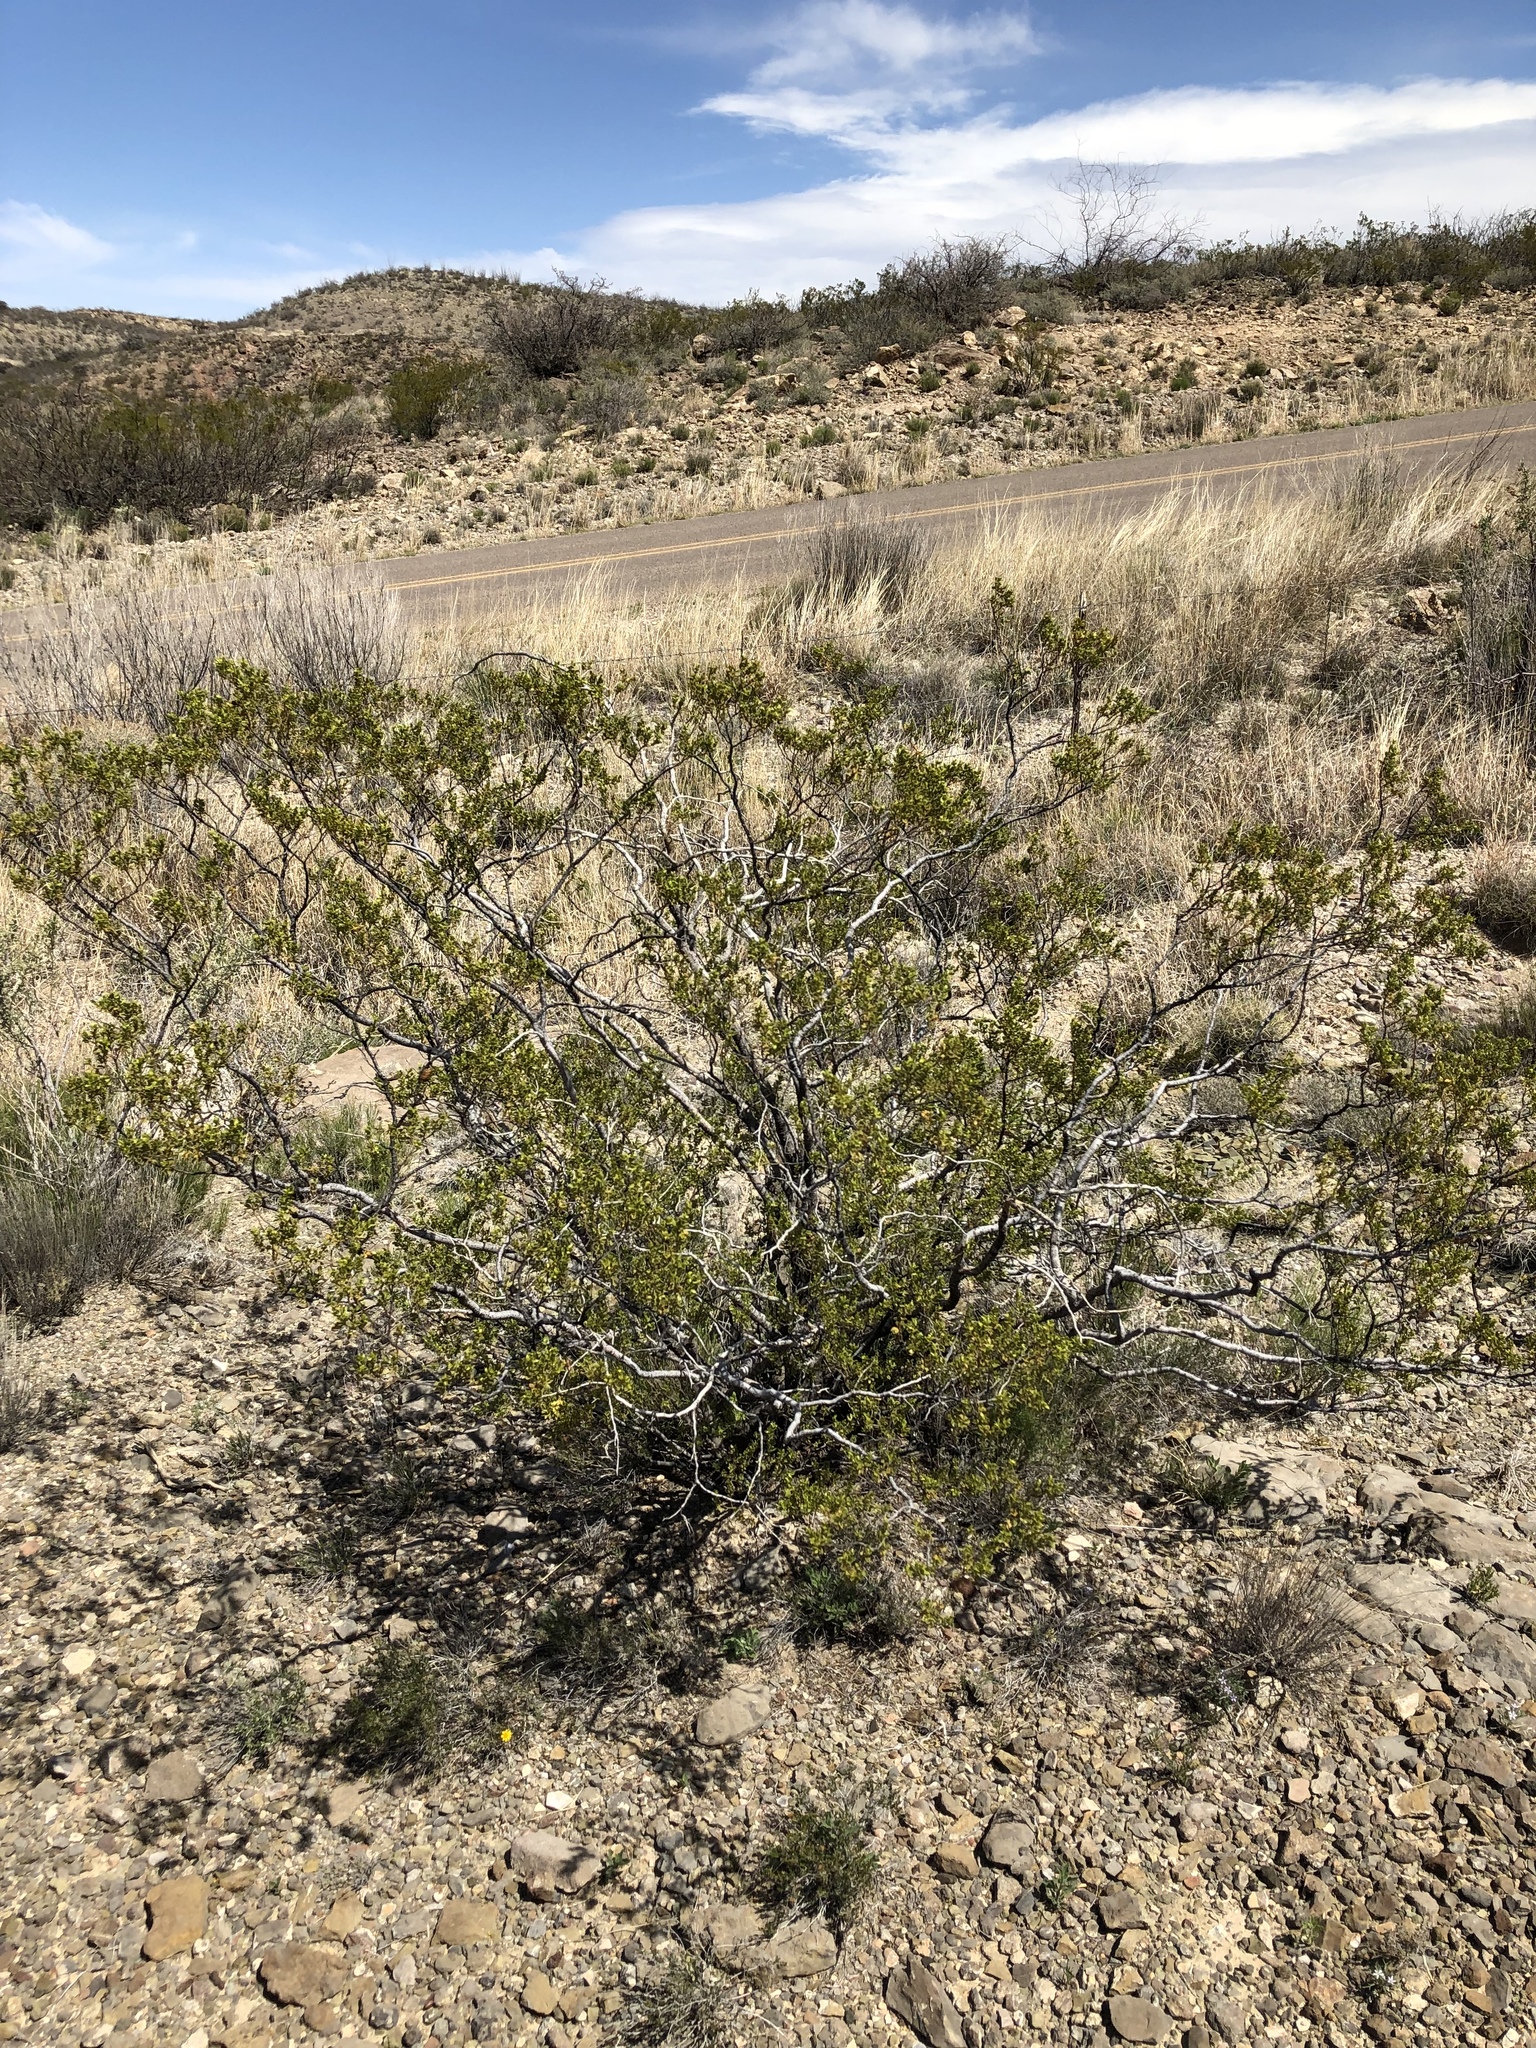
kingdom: Plantae
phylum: Tracheophyta
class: Magnoliopsida
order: Zygophyllales
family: Zygophyllaceae
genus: Larrea
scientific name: Larrea tridentata
